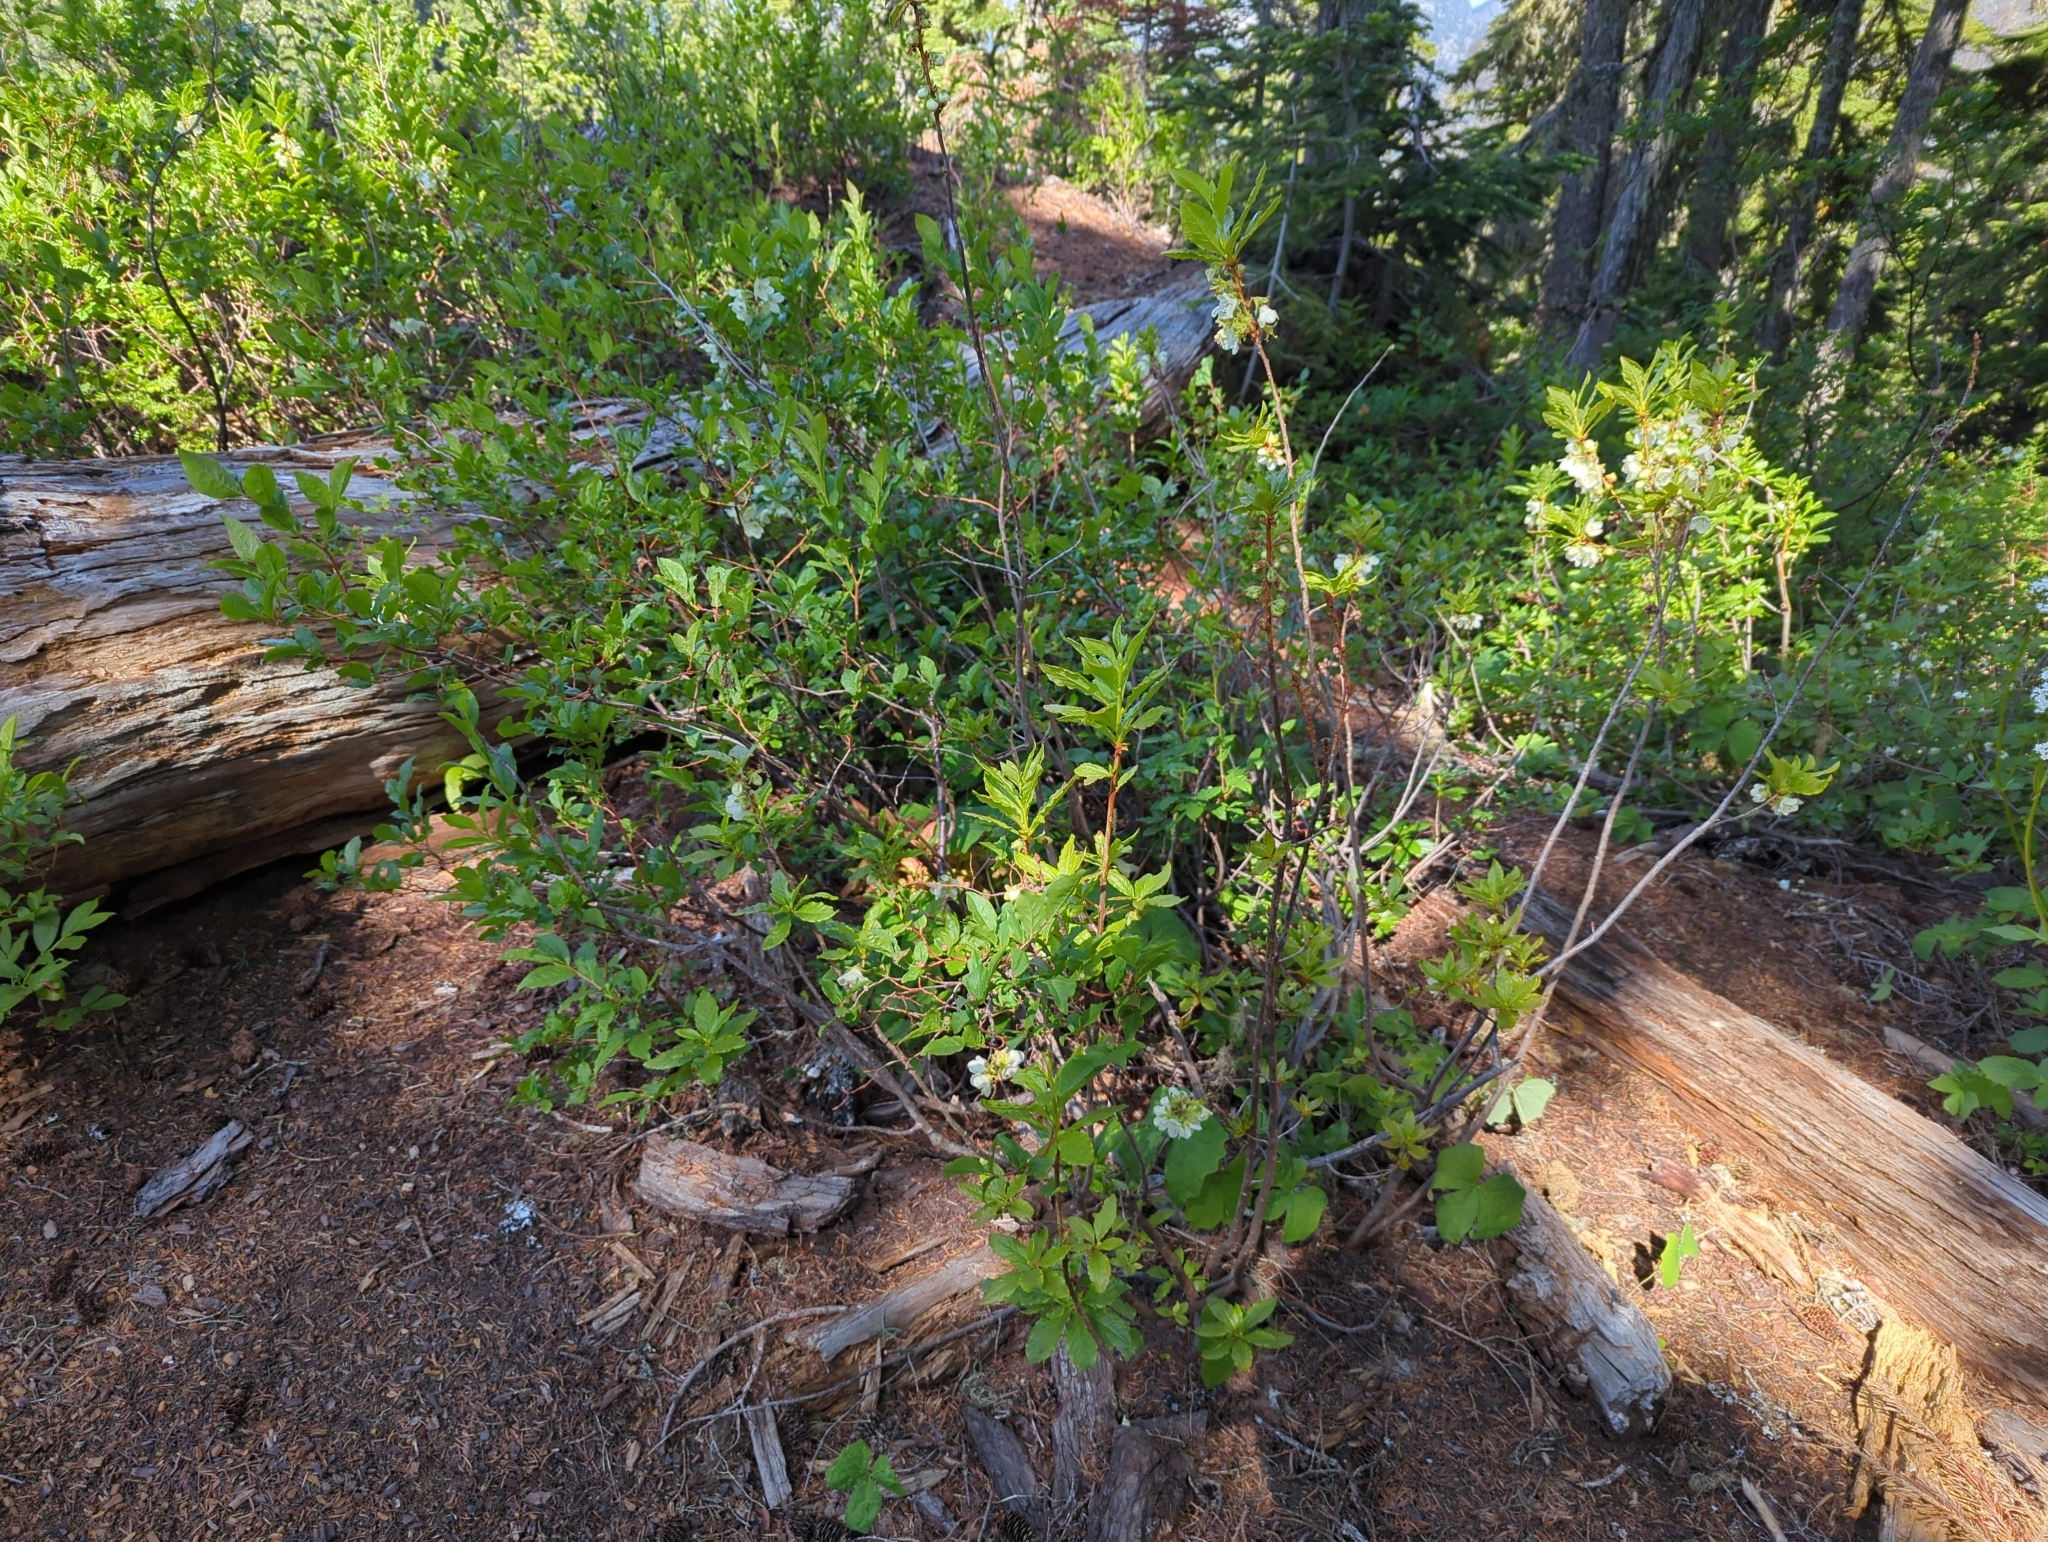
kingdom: Plantae
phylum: Tracheophyta
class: Magnoliopsida
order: Ericales
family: Ericaceae
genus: Rhododendron
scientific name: Rhododendron albiflorum
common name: White rhododendron
